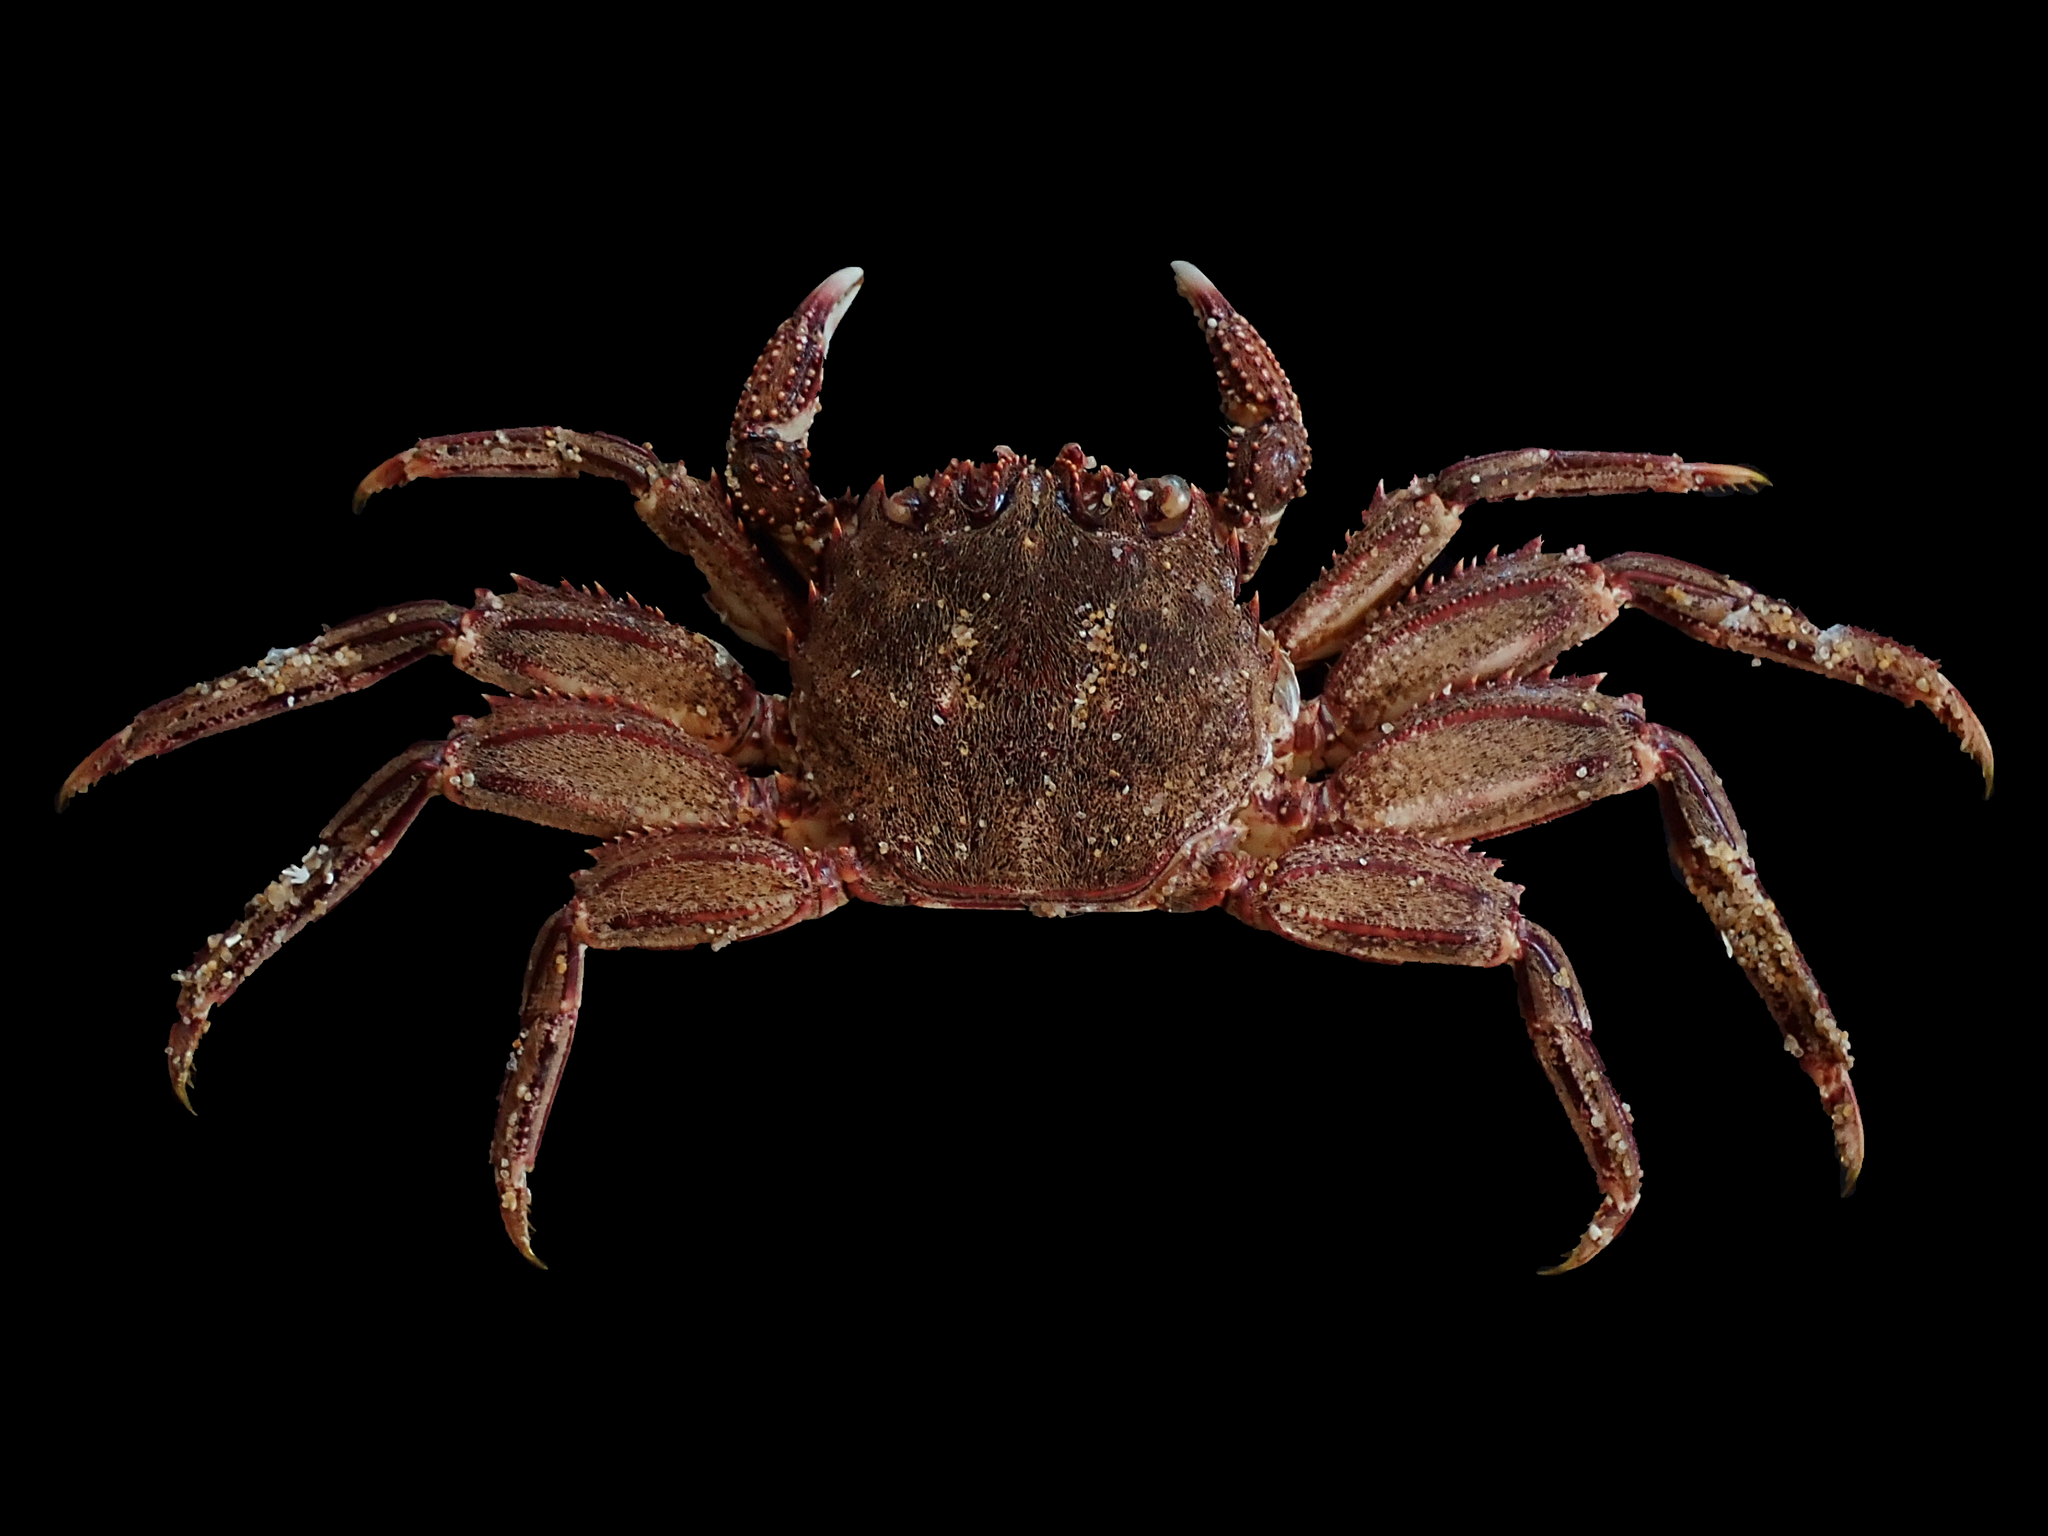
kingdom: Animalia
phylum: Arthropoda
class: Malacostraca
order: Decapoda
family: Plagusiidae
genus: Guinusia
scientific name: Guinusia chabrus
